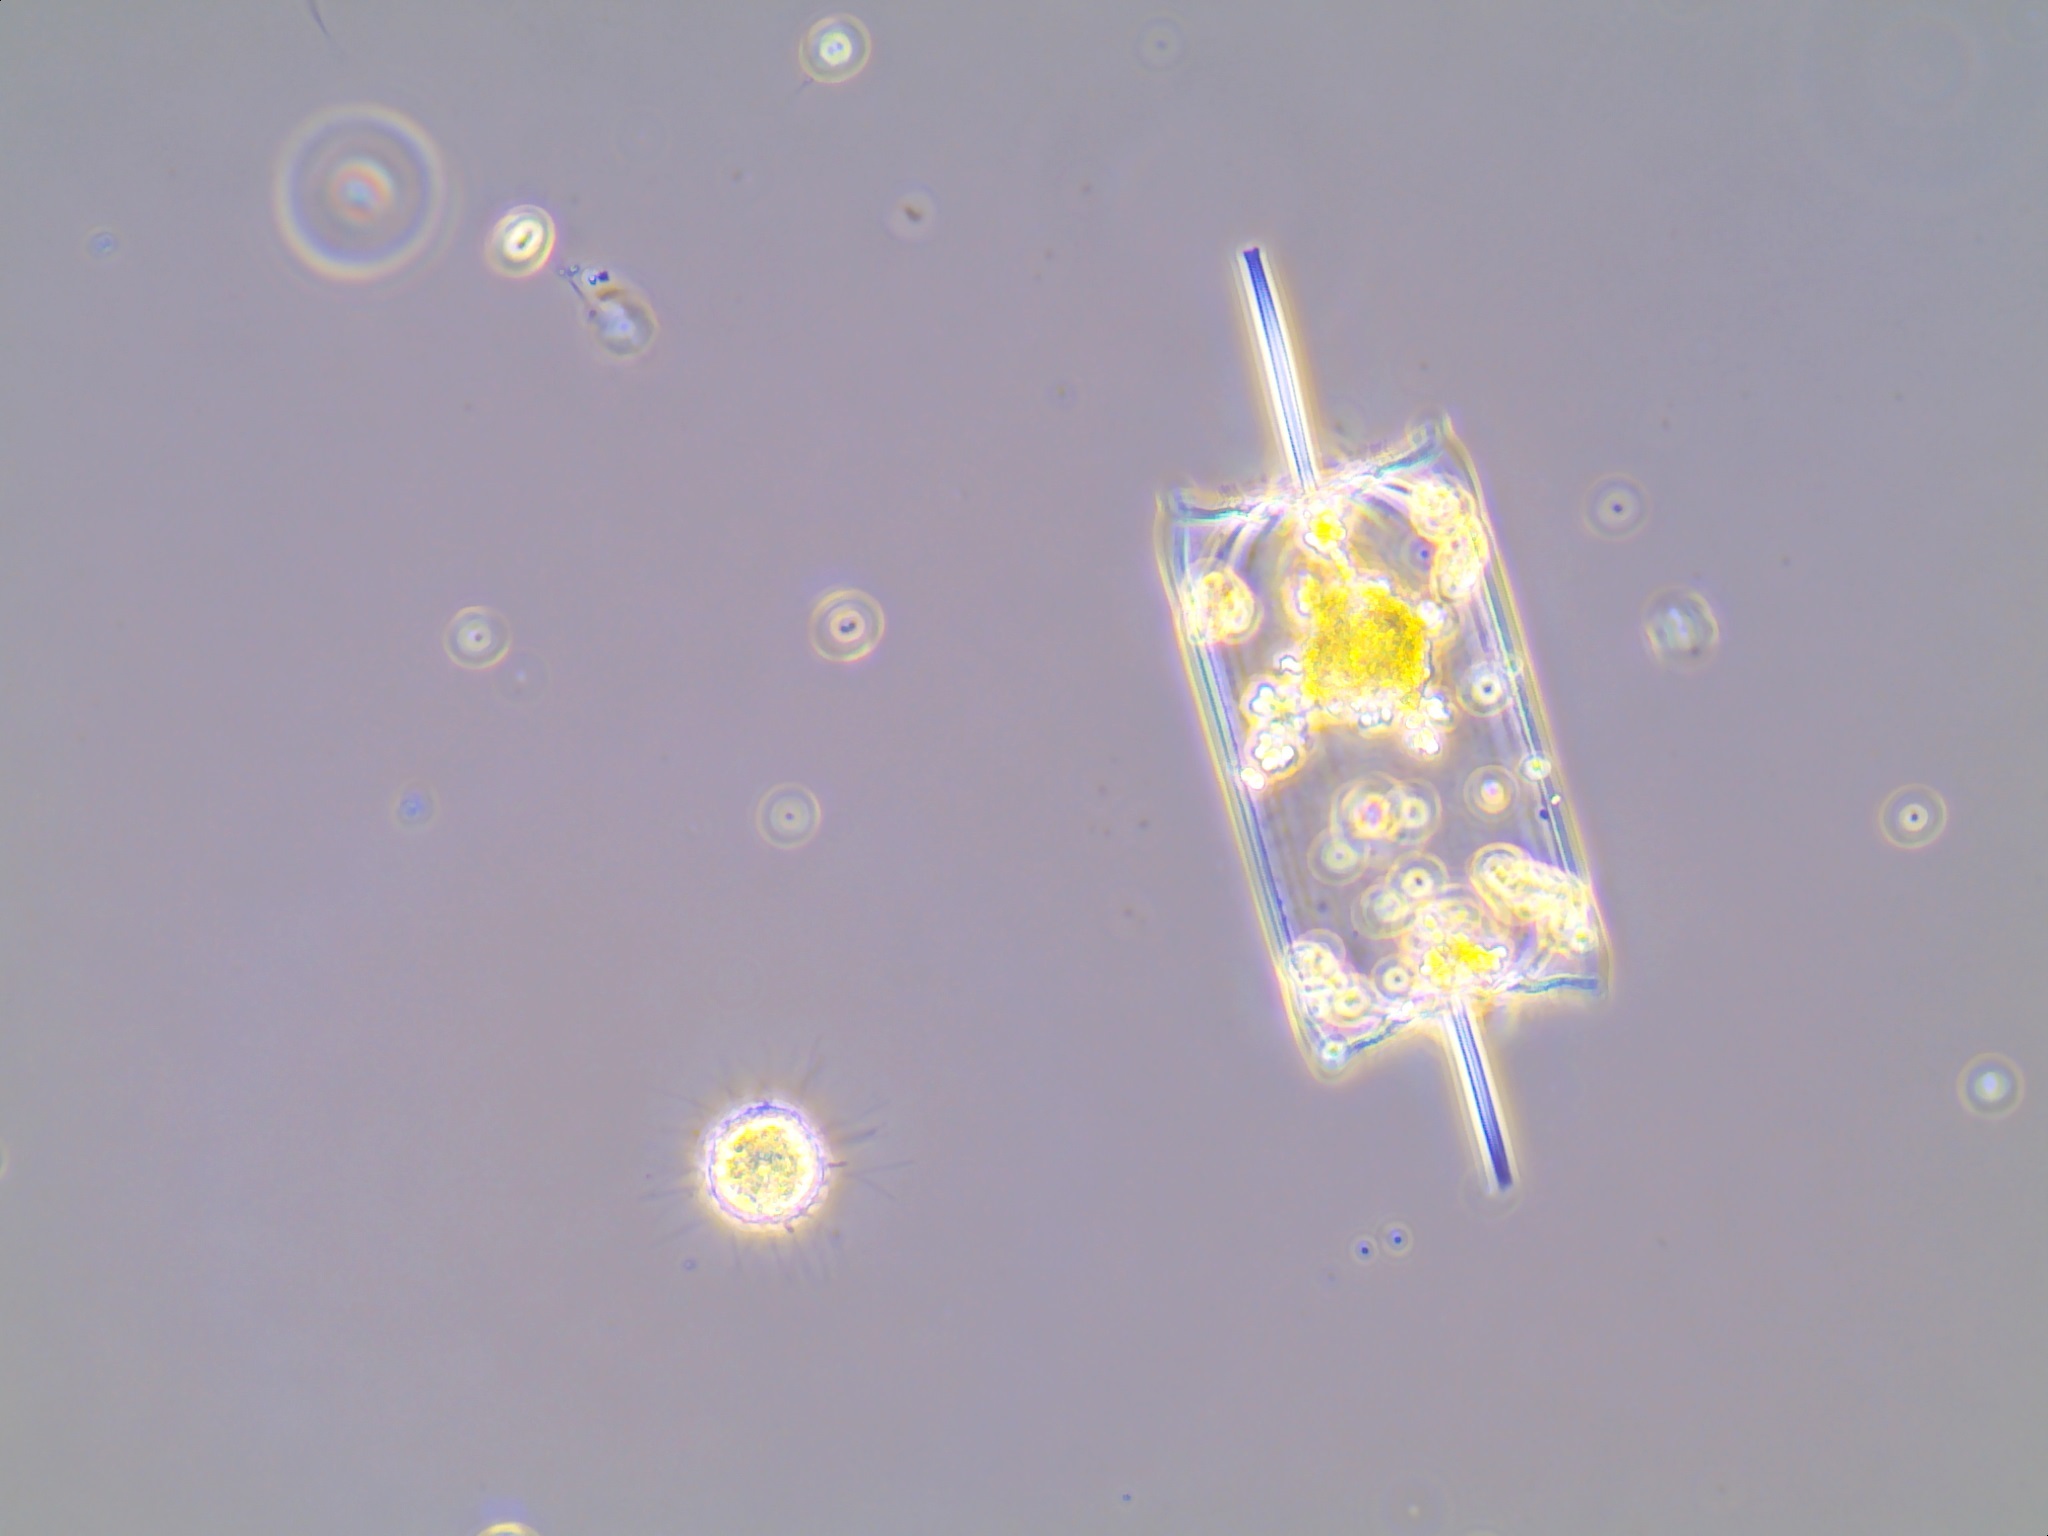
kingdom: Chromista
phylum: Ochrophyta
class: Bacillariophyceae
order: Lithodesmiales
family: Lithodesmiaceae
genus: Ditylum
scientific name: Ditylum brightwellii
